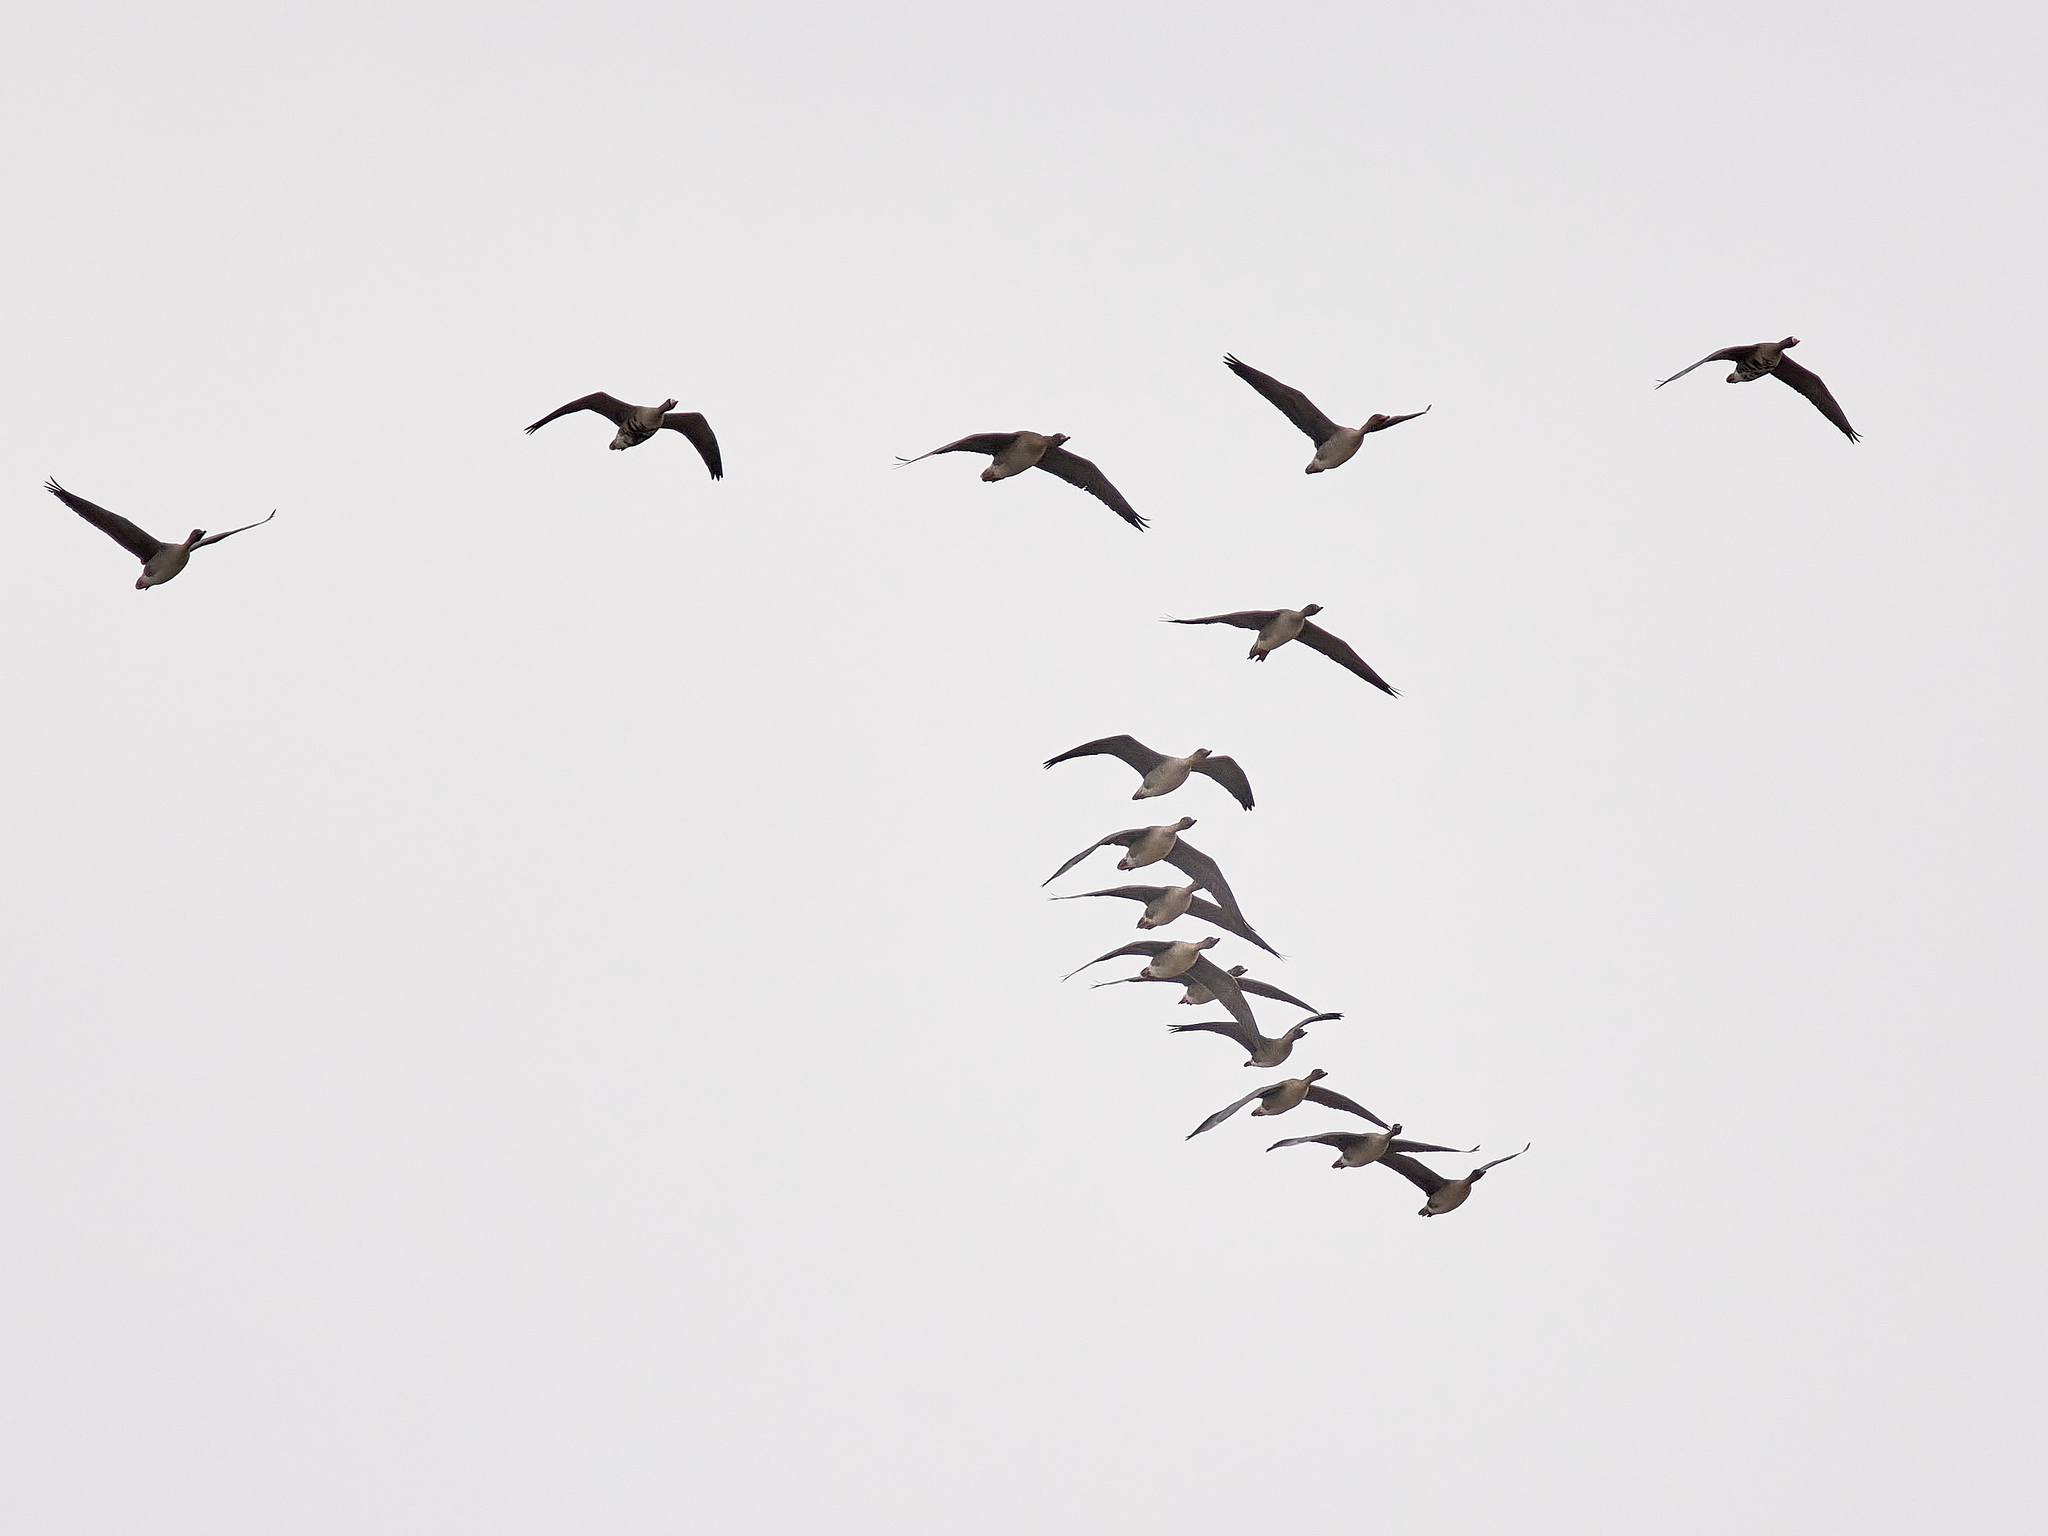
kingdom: Animalia
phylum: Chordata
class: Aves
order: Anseriformes
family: Anatidae
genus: Anser
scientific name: Anser fabalis
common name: Bean goose
